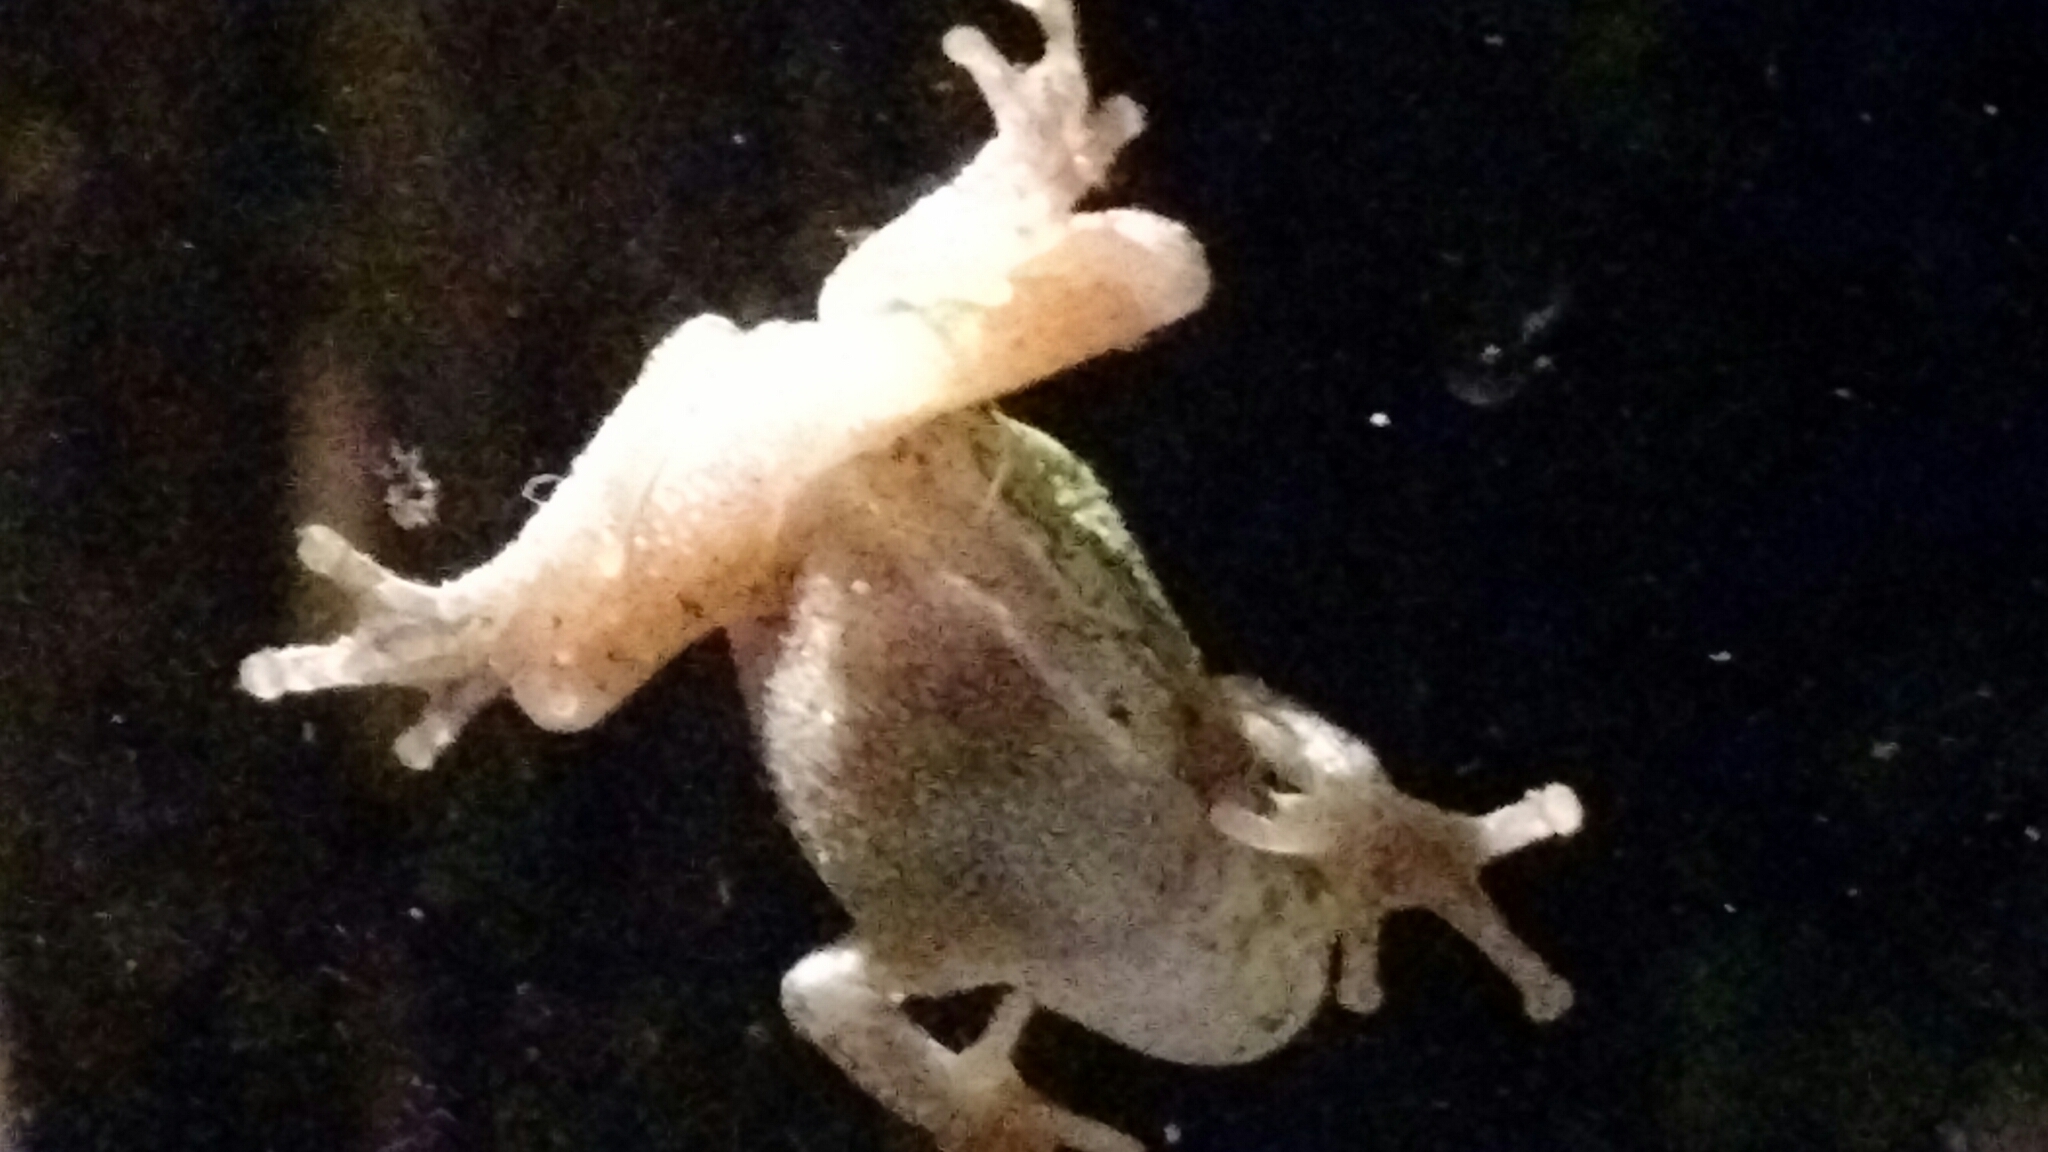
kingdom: Animalia
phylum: Chordata
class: Amphibia
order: Anura
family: Hylidae
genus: Dryophytes
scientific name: Dryophytes versicolor
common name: Gray treefrog
